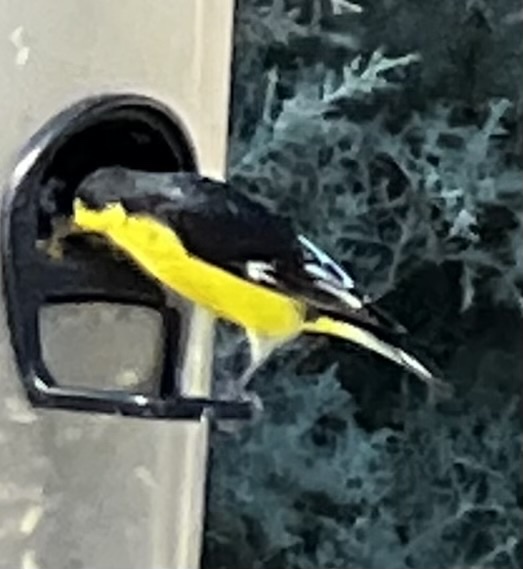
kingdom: Animalia
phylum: Chordata
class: Aves
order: Passeriformes
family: Fringillidae
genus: Spinus
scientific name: Spinus psaltria
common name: Lesser goldfinch
